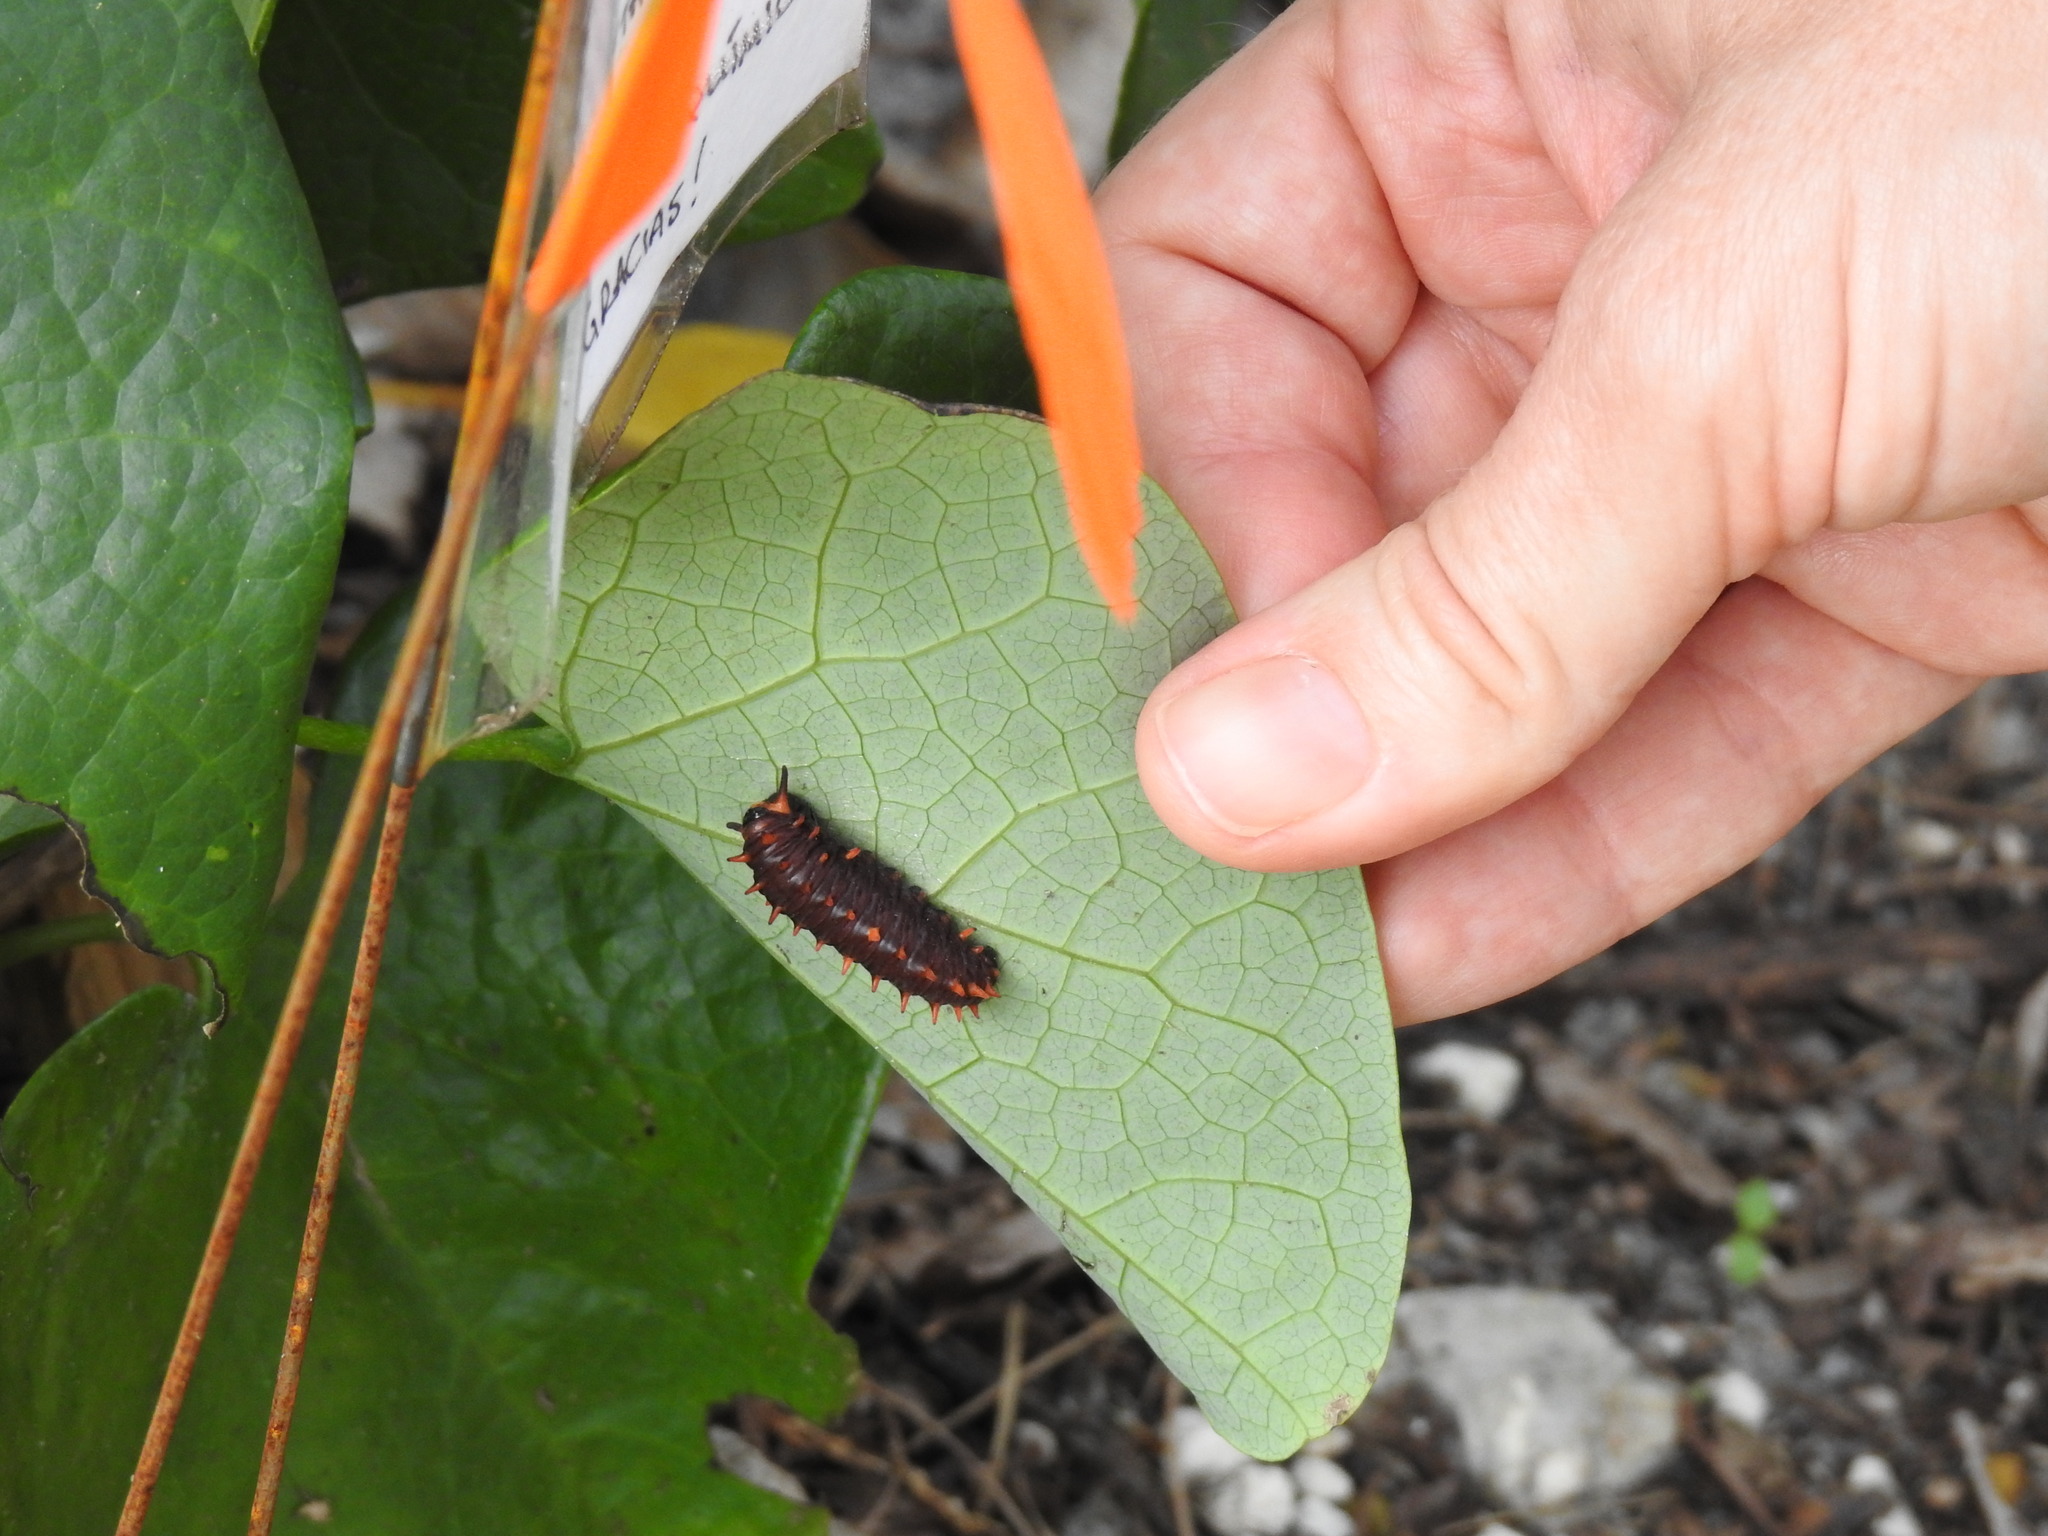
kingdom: Animalia
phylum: Arthropoda
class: Insecta
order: Lepidoptera
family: Papilionidae
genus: Battus
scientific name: Battus polydamas
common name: Polydamas swallowtail
